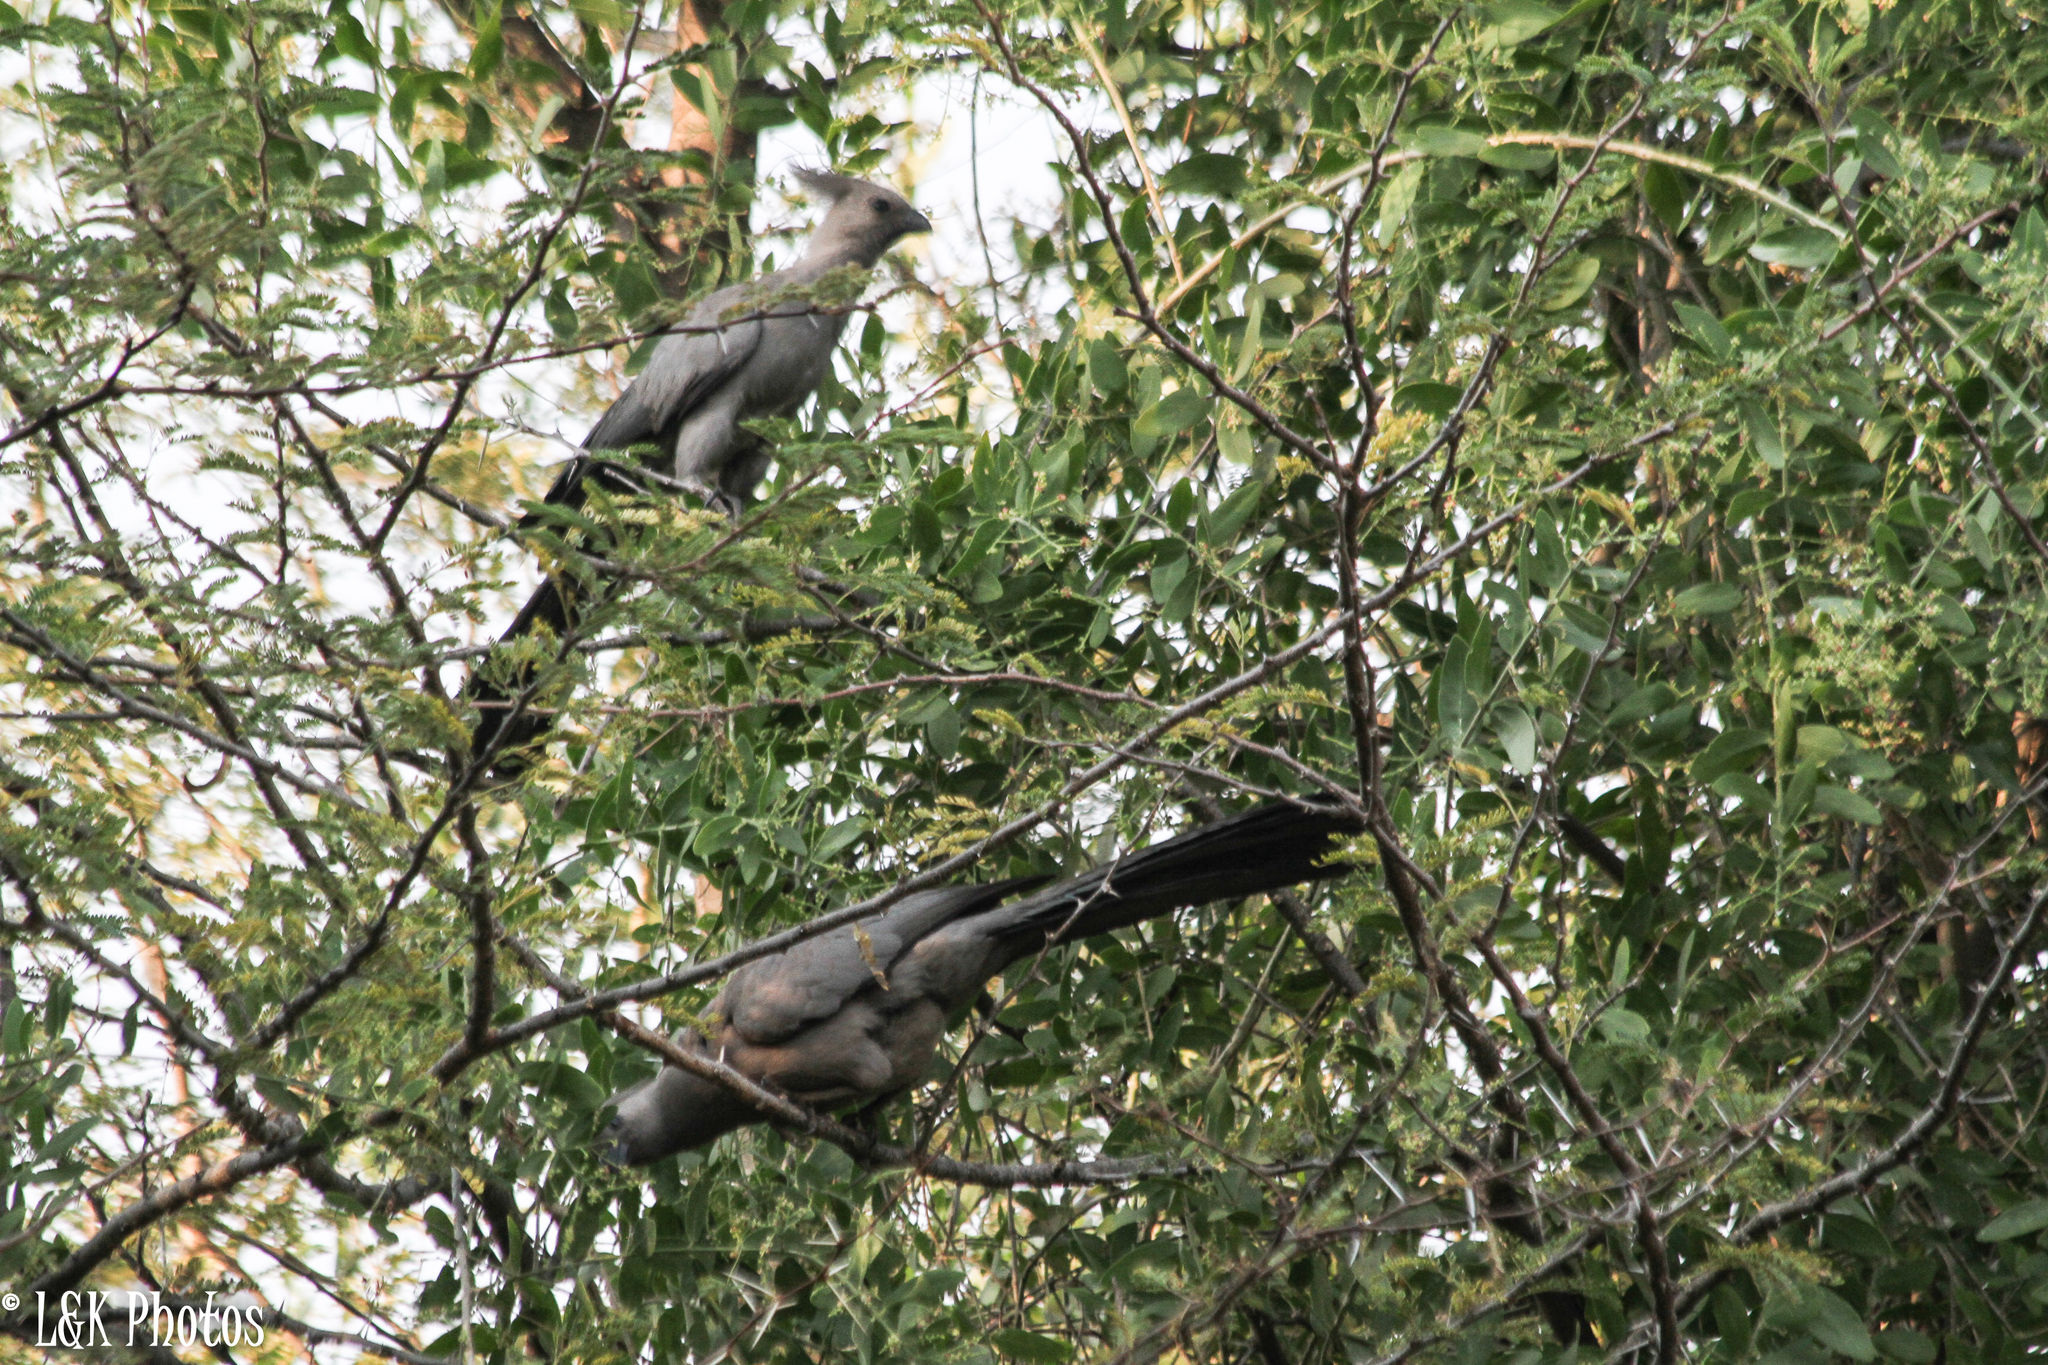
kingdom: Animalia
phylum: Chordata
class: Aves
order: Musophagiformes
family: Musophagidae
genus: Corythaixoides
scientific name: Corythaixoides concolor
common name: Grey go-away-bird
